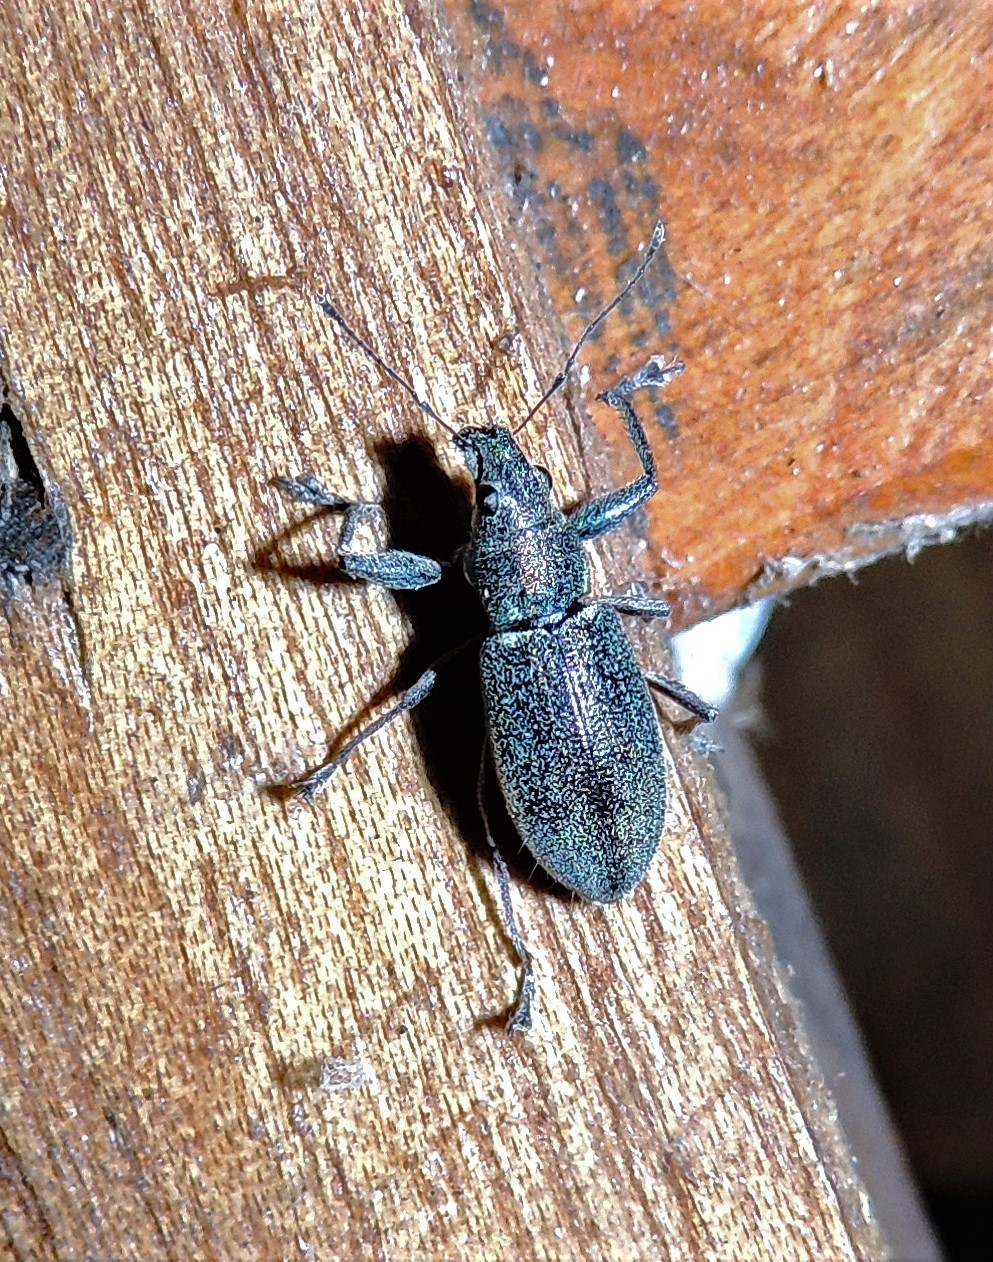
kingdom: Animalia
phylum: Arthropoda
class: Insecta
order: Coleoptera
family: Curculionidae
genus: Naupactus
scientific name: Naupactus auricinctus
